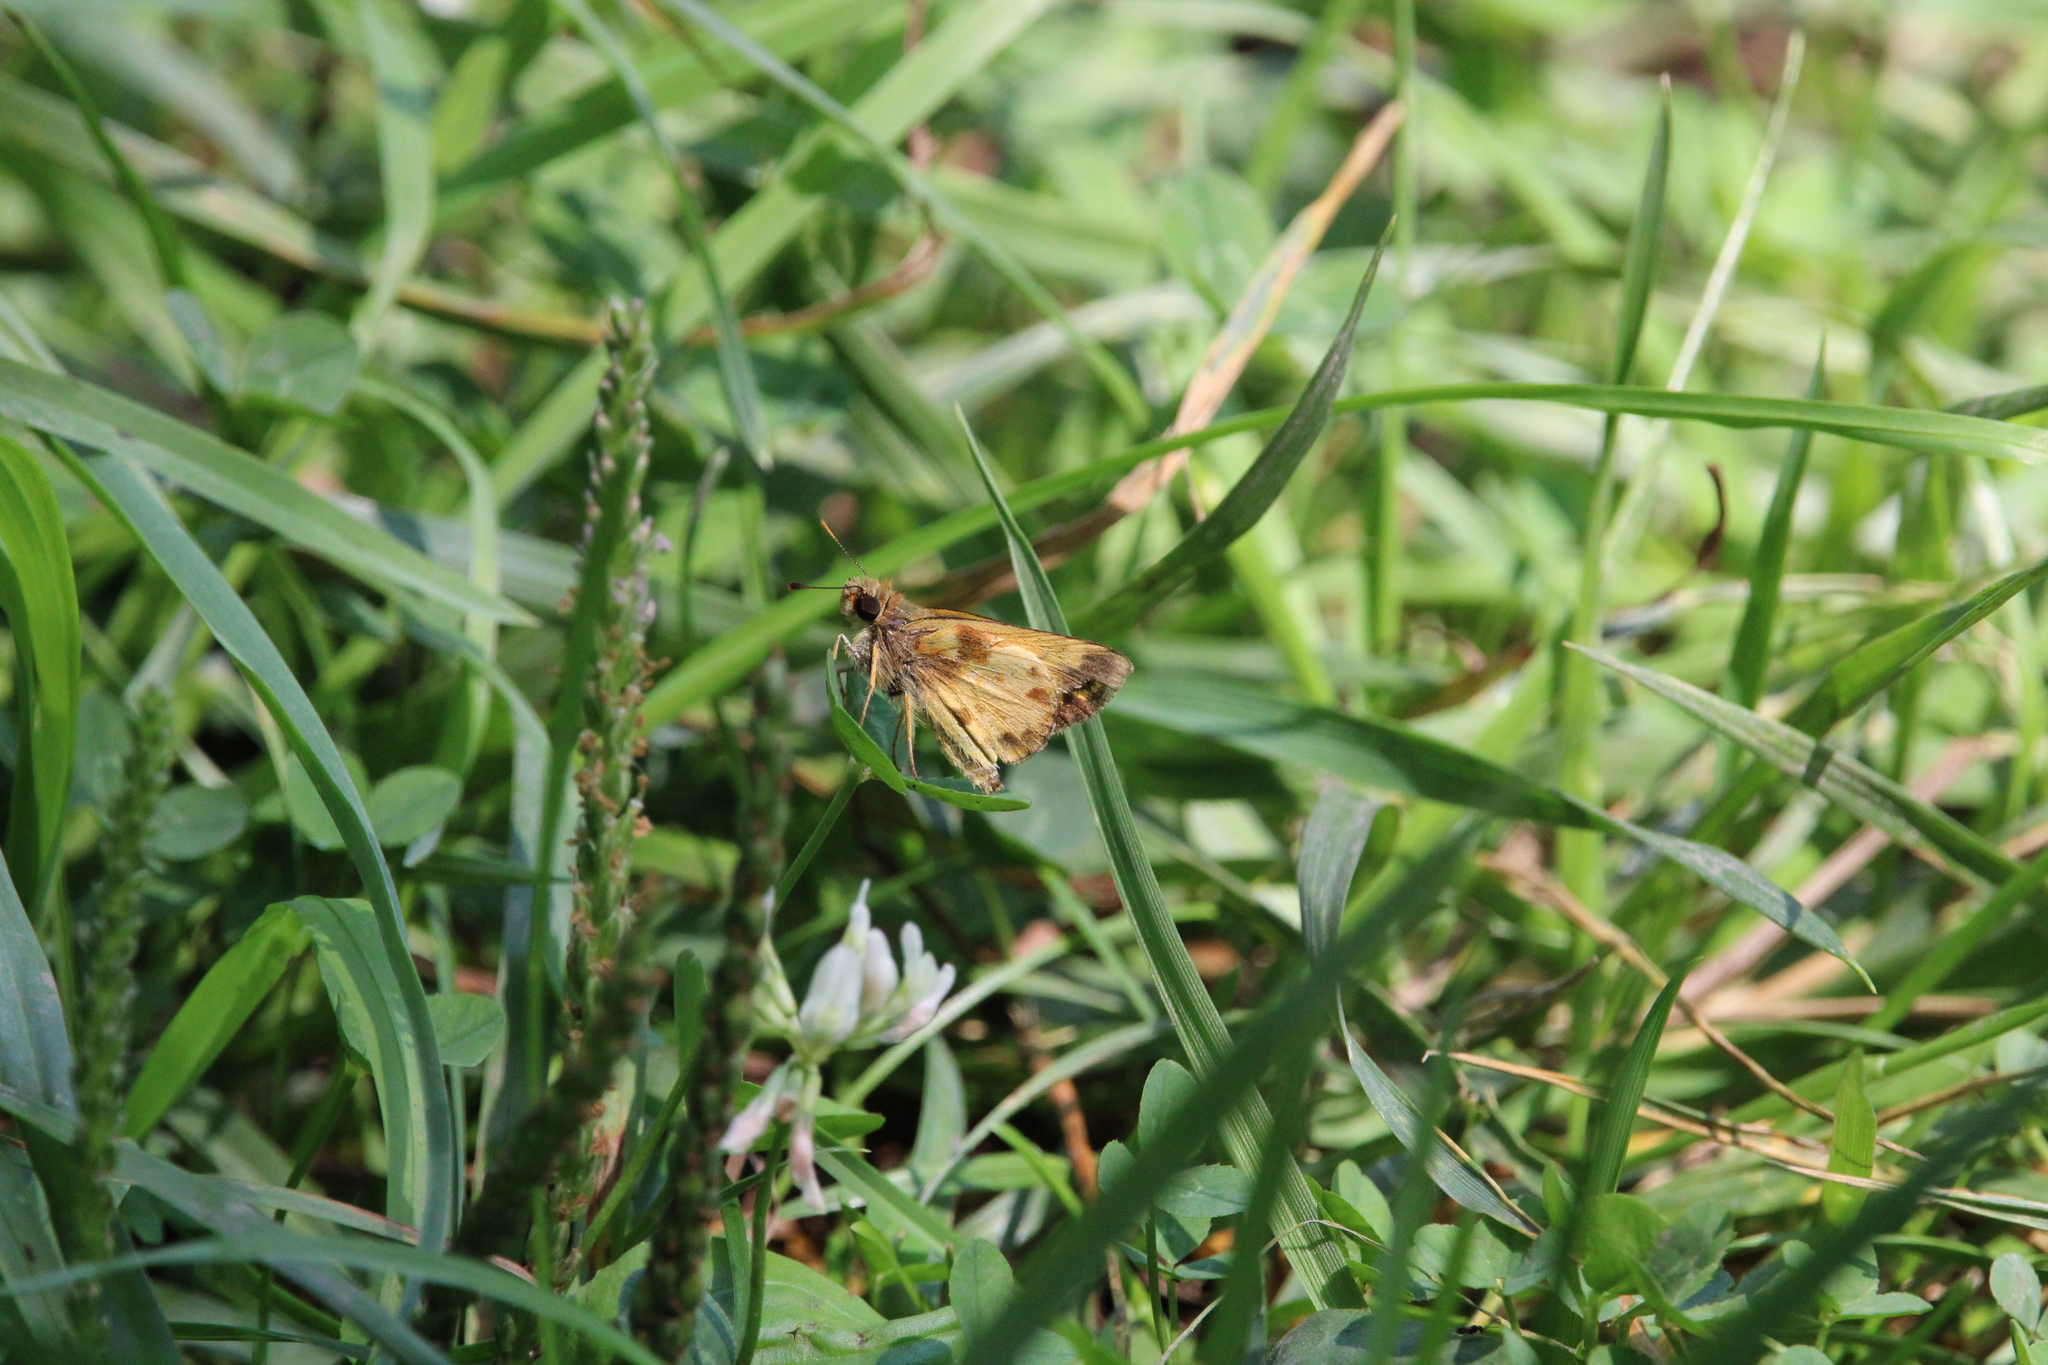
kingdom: Animalia
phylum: Arthropoda
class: Insecta
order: Lepidoptera
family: Hesperiidae
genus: Lon
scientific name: Lon zabulon
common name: Zabulon skipper
